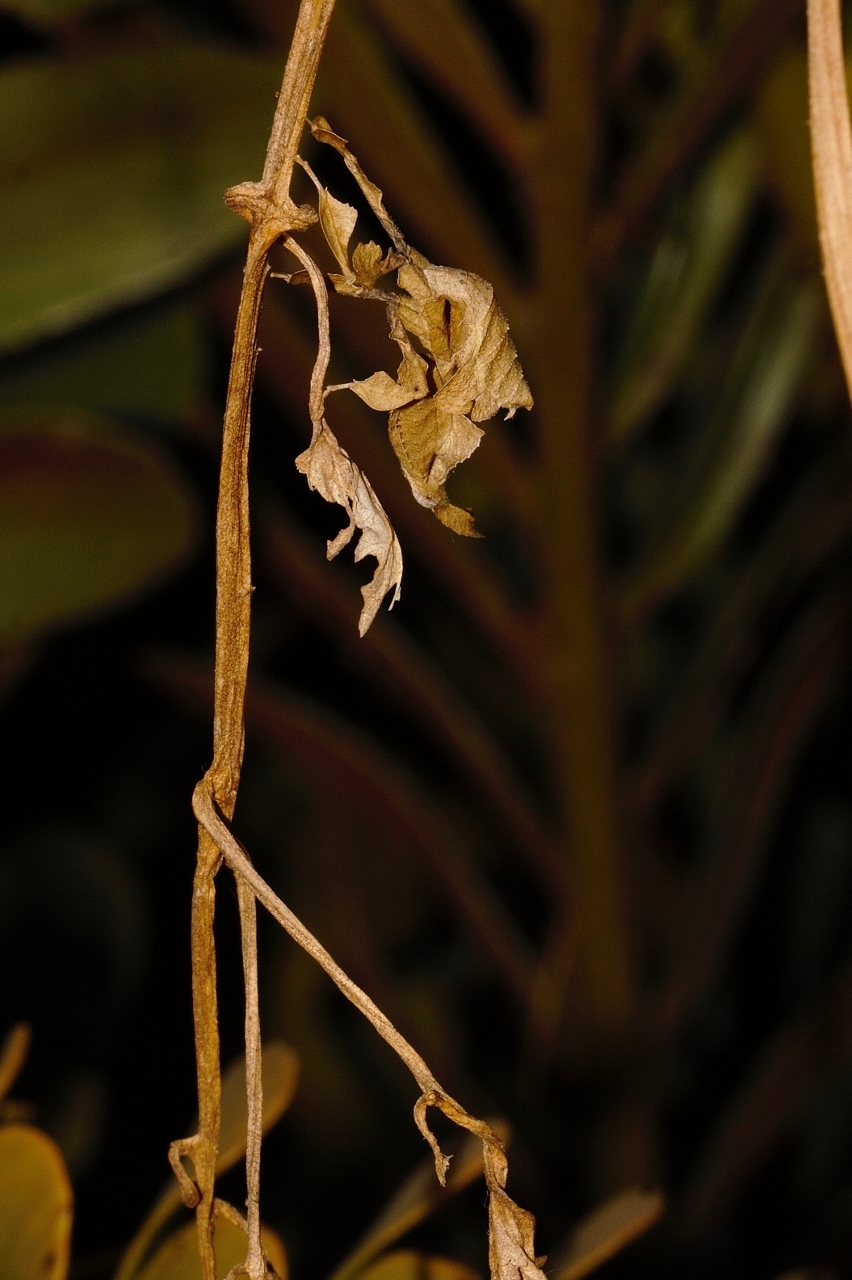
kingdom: Animalia
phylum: Arthropoda
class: Insecta
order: Mantodea
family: Hymenopodidae
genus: Phyllocrania
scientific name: Phyllocrania paradoxa
